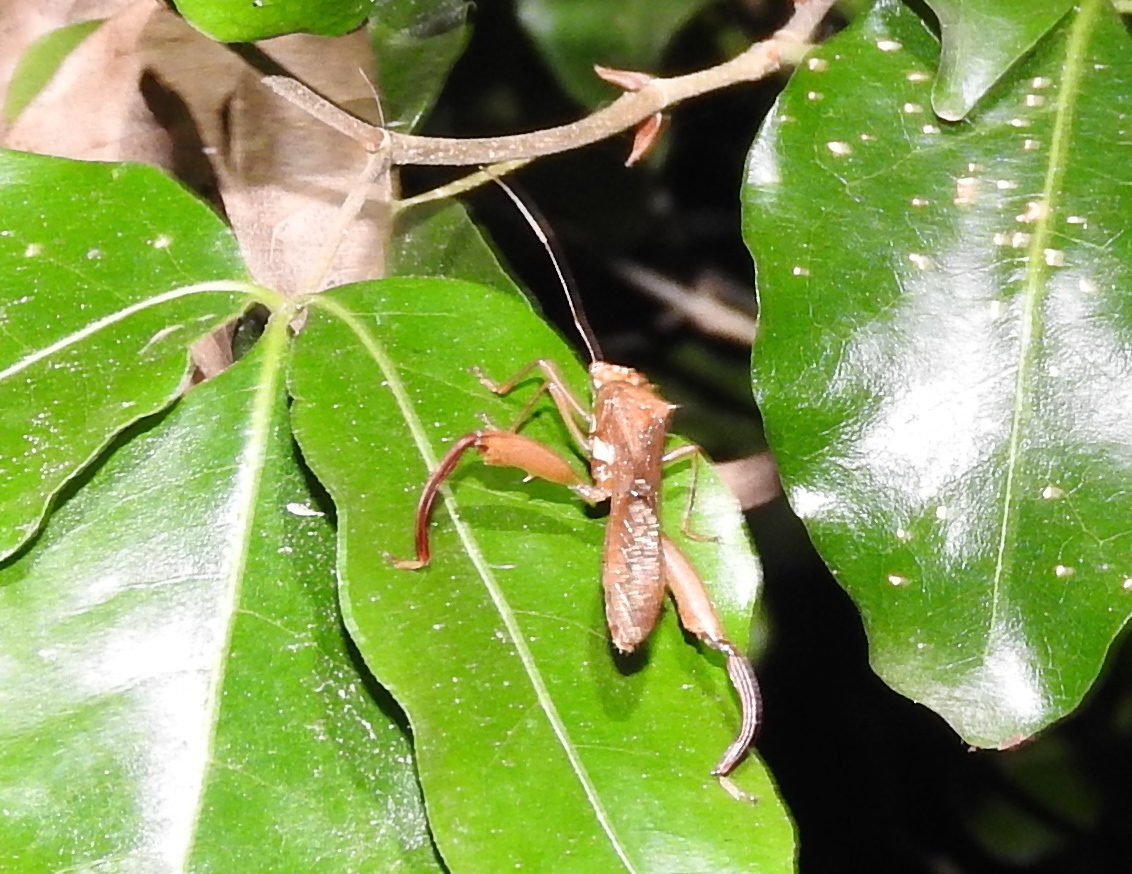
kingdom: Animalia
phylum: Arthropoda
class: Insecta
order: Hemiptera
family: Alydidae
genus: Hyalymenus
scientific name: Hyalymenus
